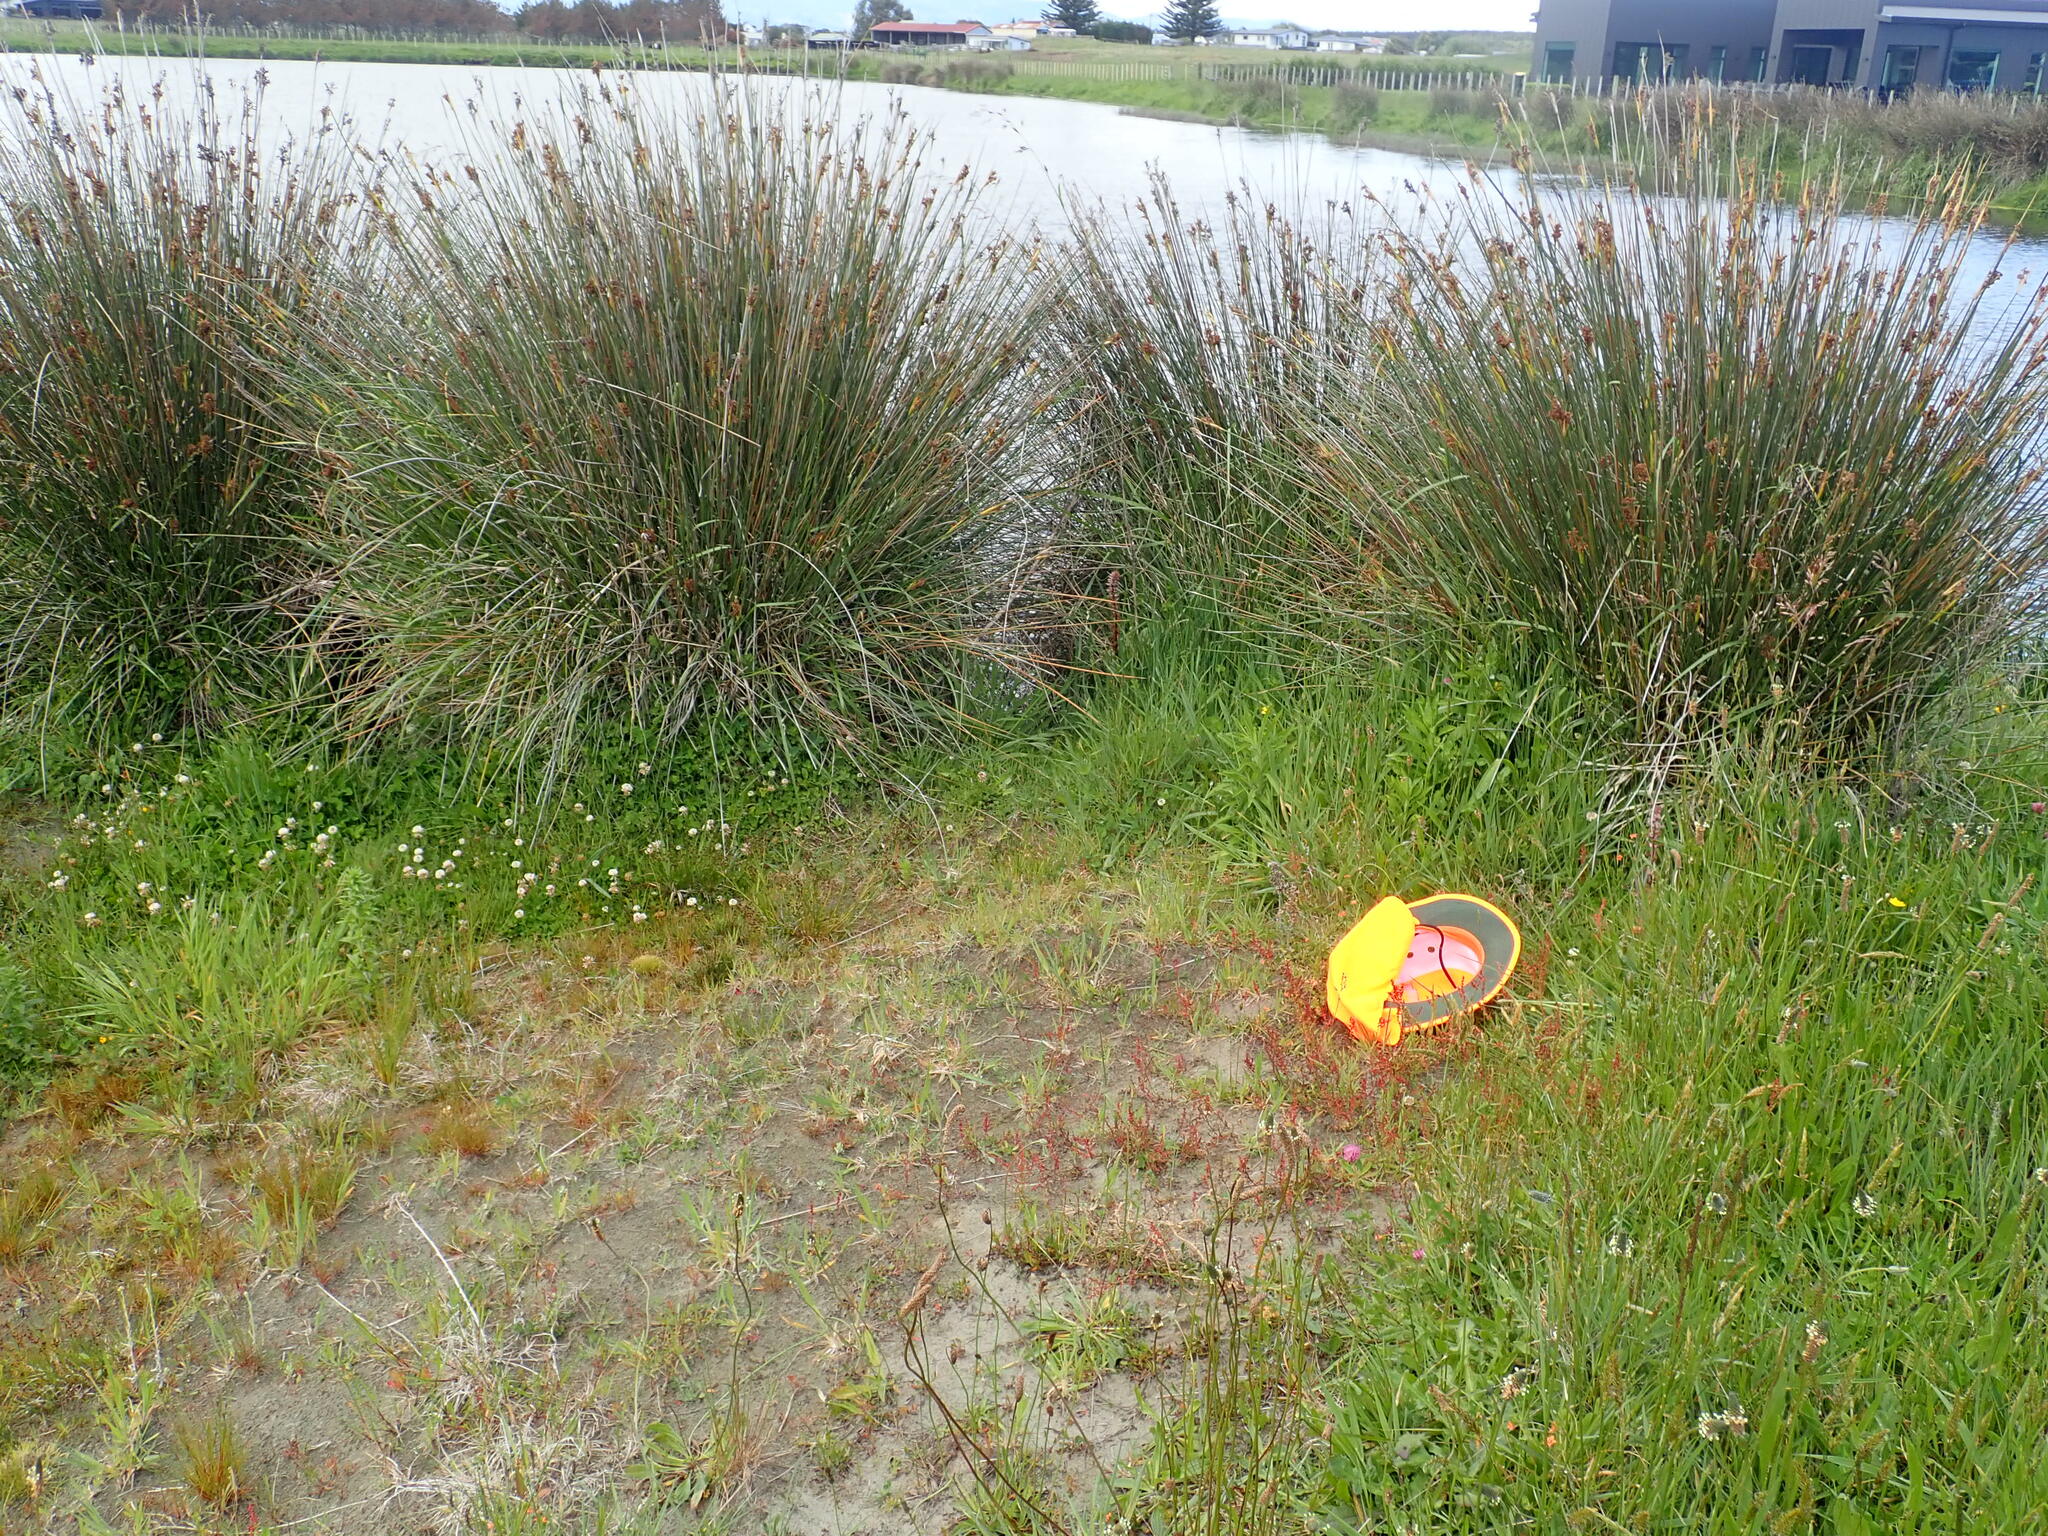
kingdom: Plantae
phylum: Tracheophyta
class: Magnoliopsida
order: Ericales
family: Primulaceae
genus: Lysimachia
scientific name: Lysimachia arvensis
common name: Scarlet pimpernel
